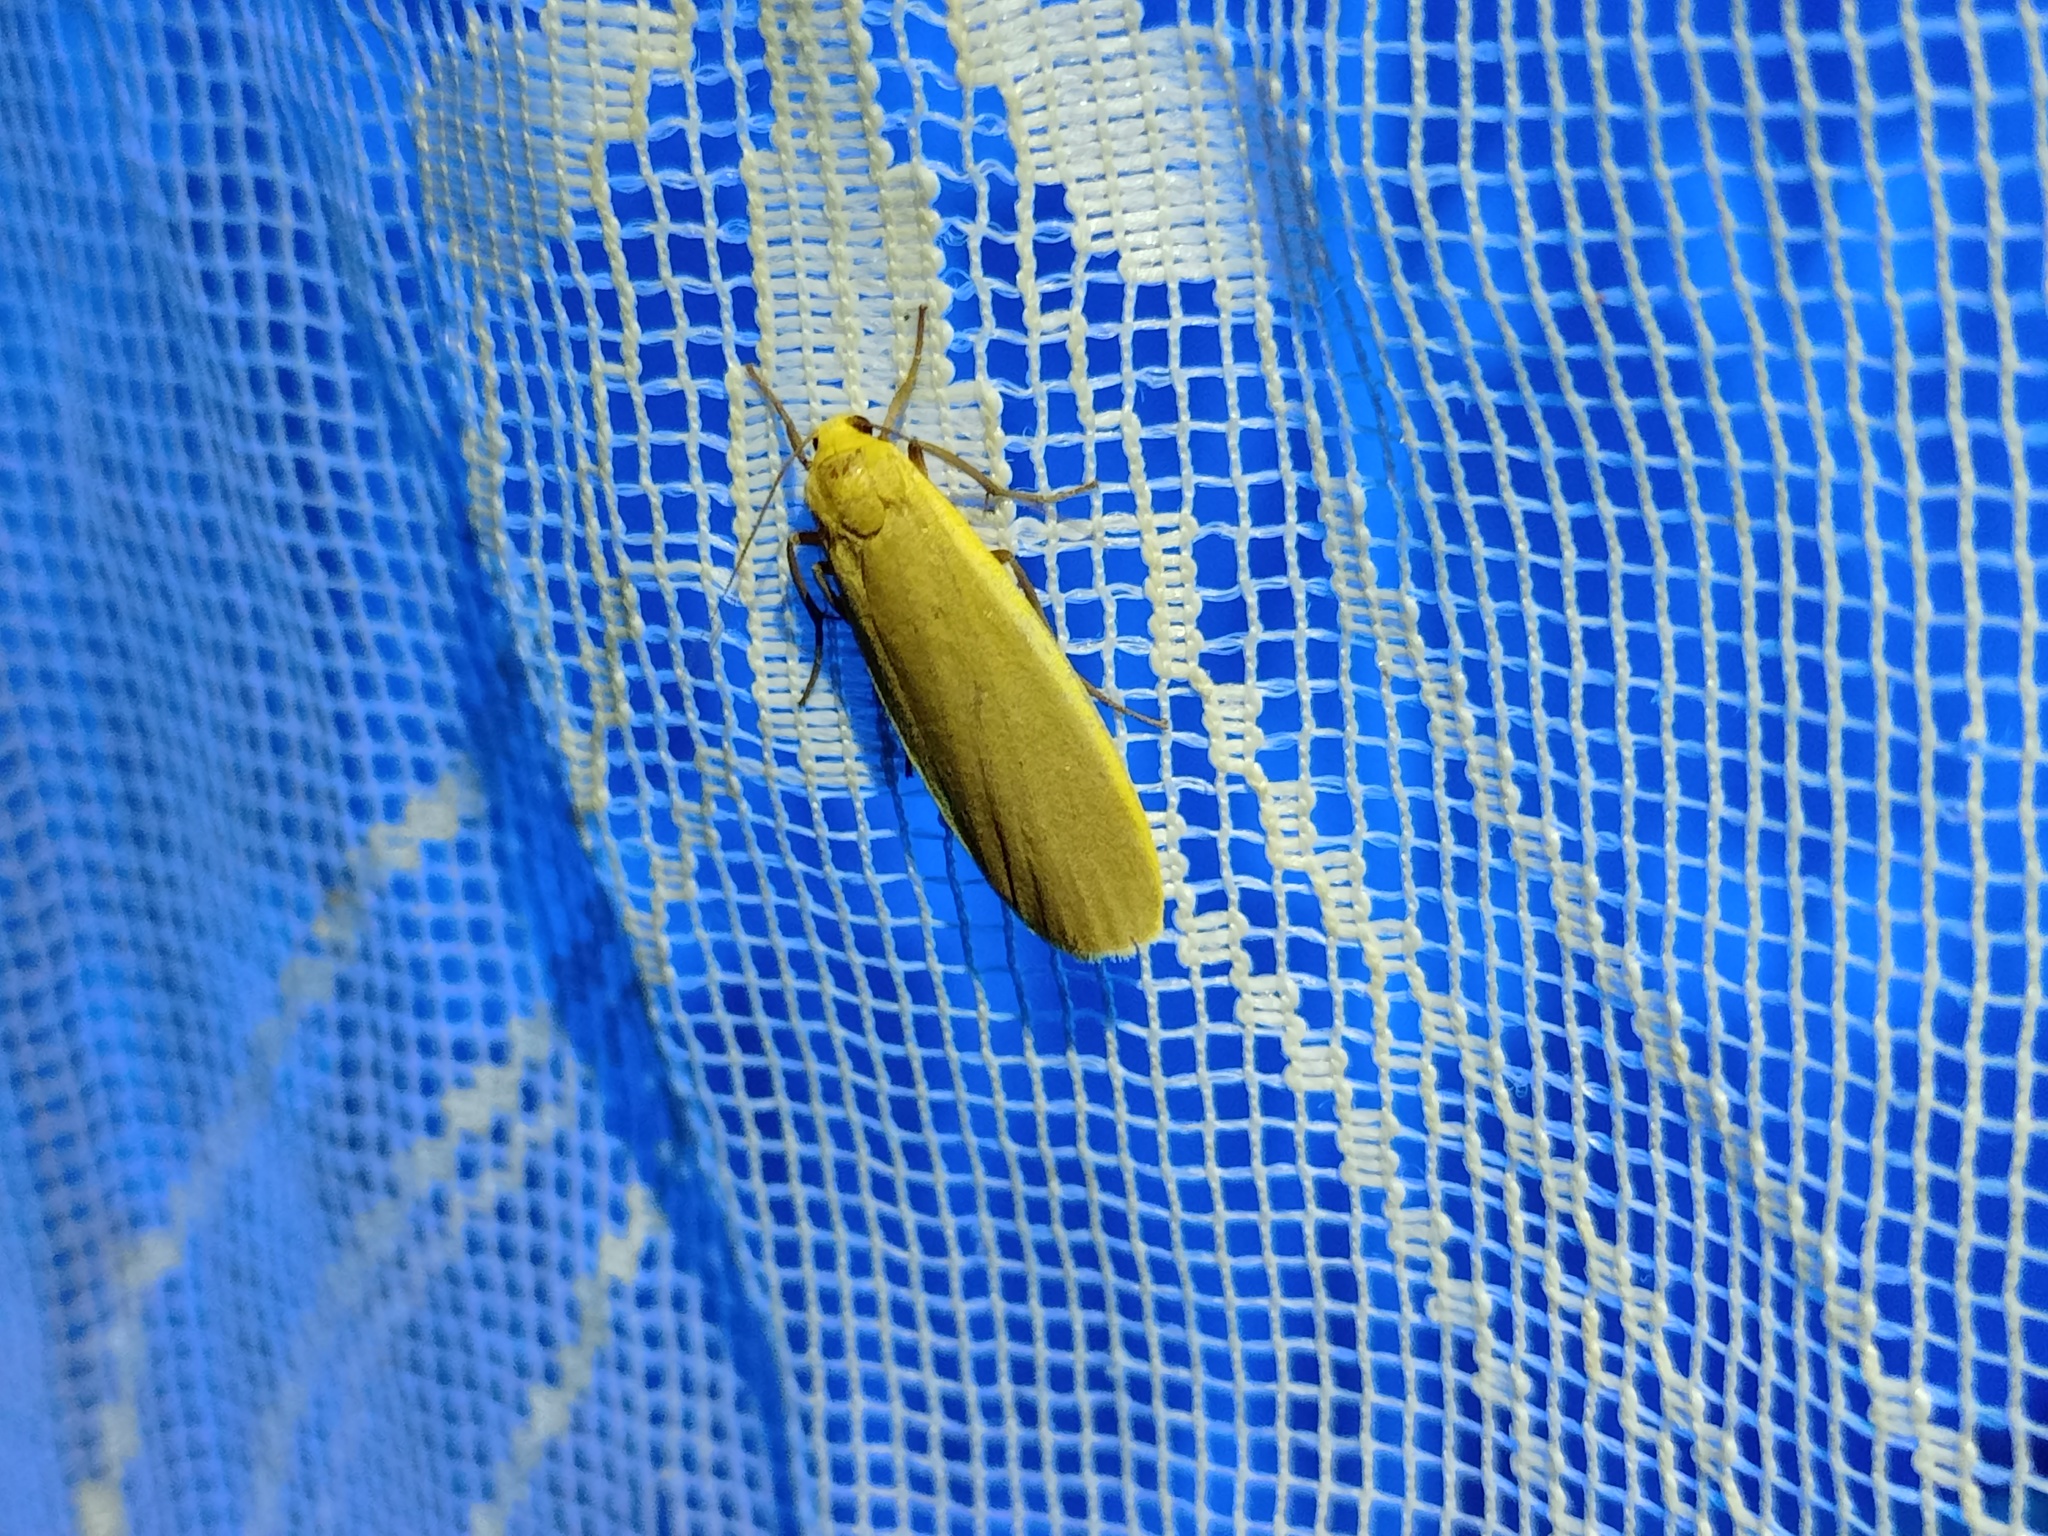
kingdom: Animalia
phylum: Arthropoda
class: Insecta
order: Lepidoptera
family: Erebidae
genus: Katha
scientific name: Katha depressa
